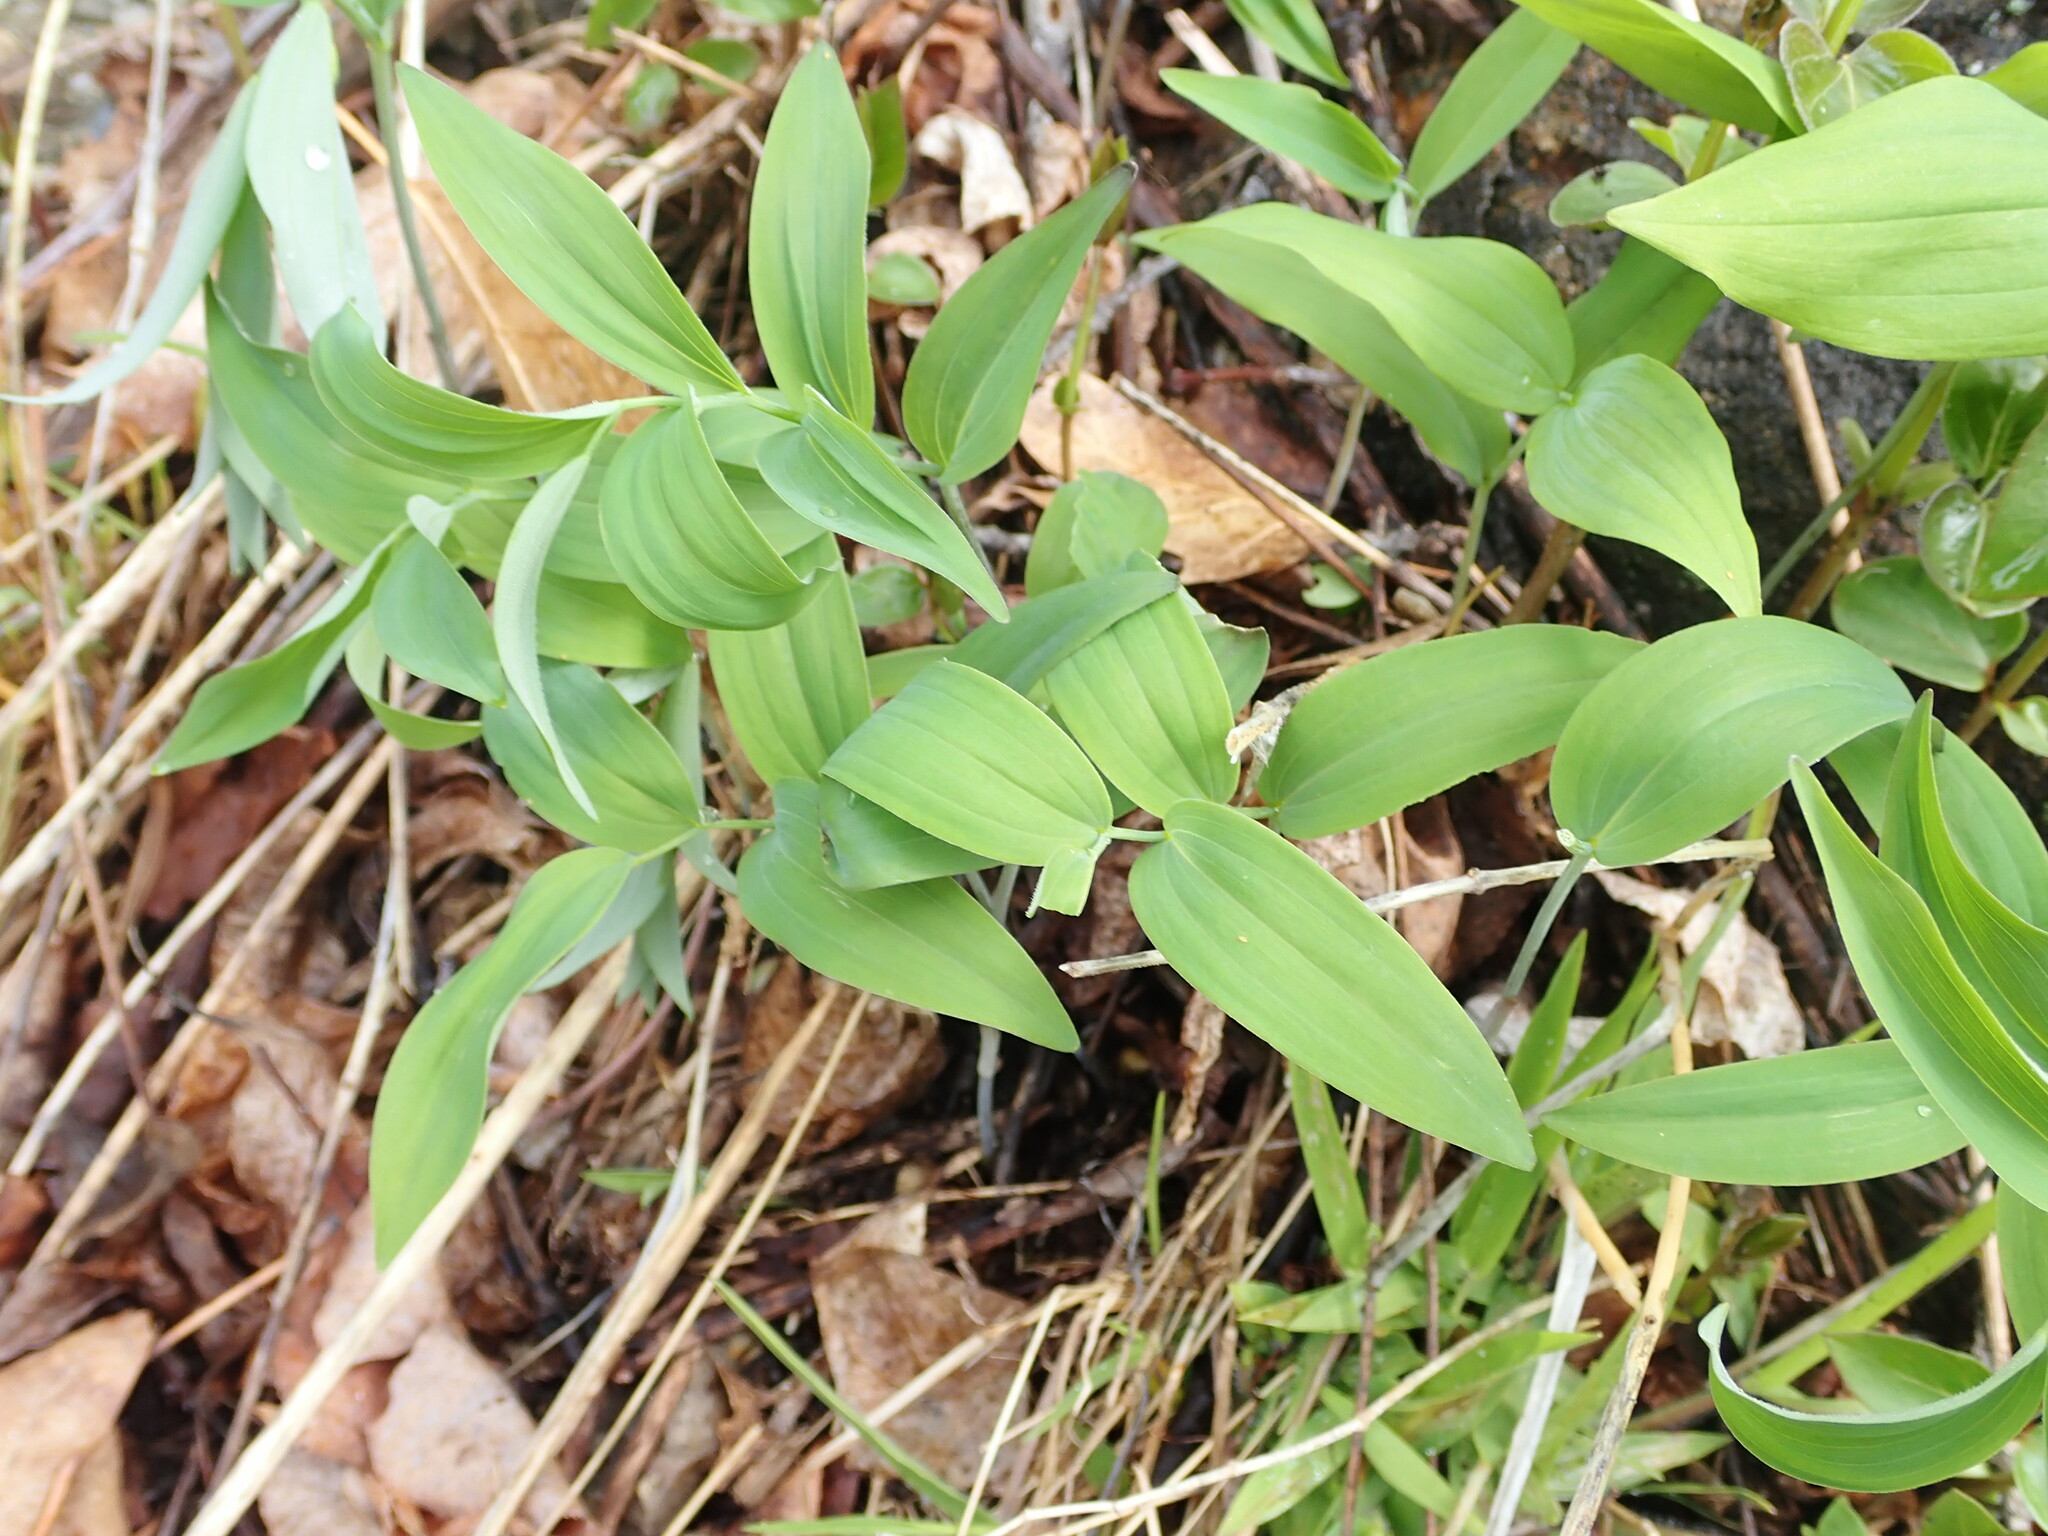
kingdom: Plantae
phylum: Tracheophyta
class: Liliopsida
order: Asparagales
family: Asparagaceae
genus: Polygonatum
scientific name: Polygonatum
